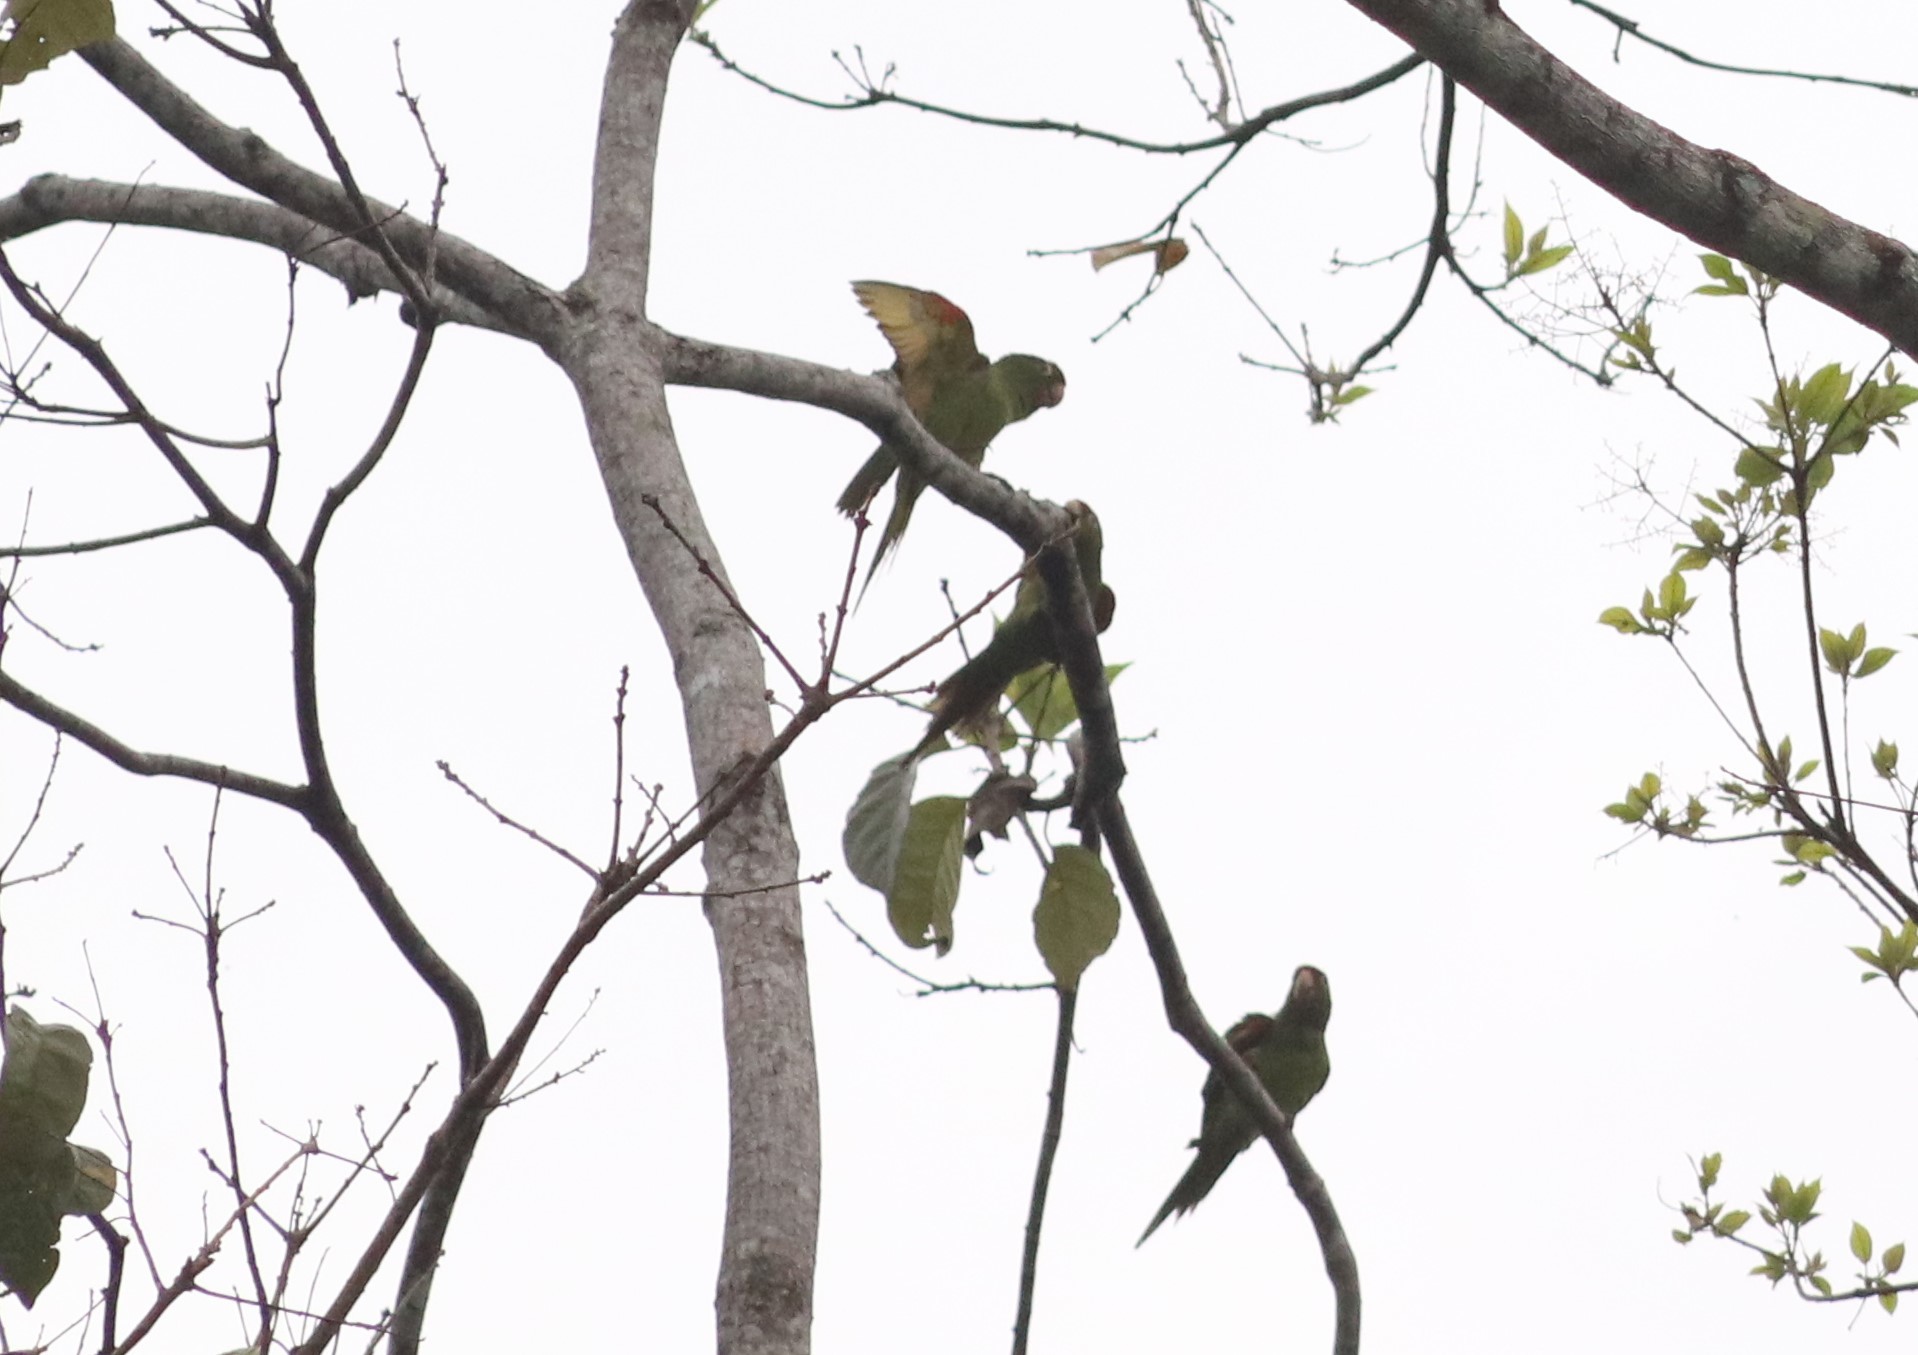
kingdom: Animalia
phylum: Chordata
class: Aves
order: Psittaciformes
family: Psittacidae
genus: Aratinga
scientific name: Aratinga finschi
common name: Crimson-fronted parakeet
